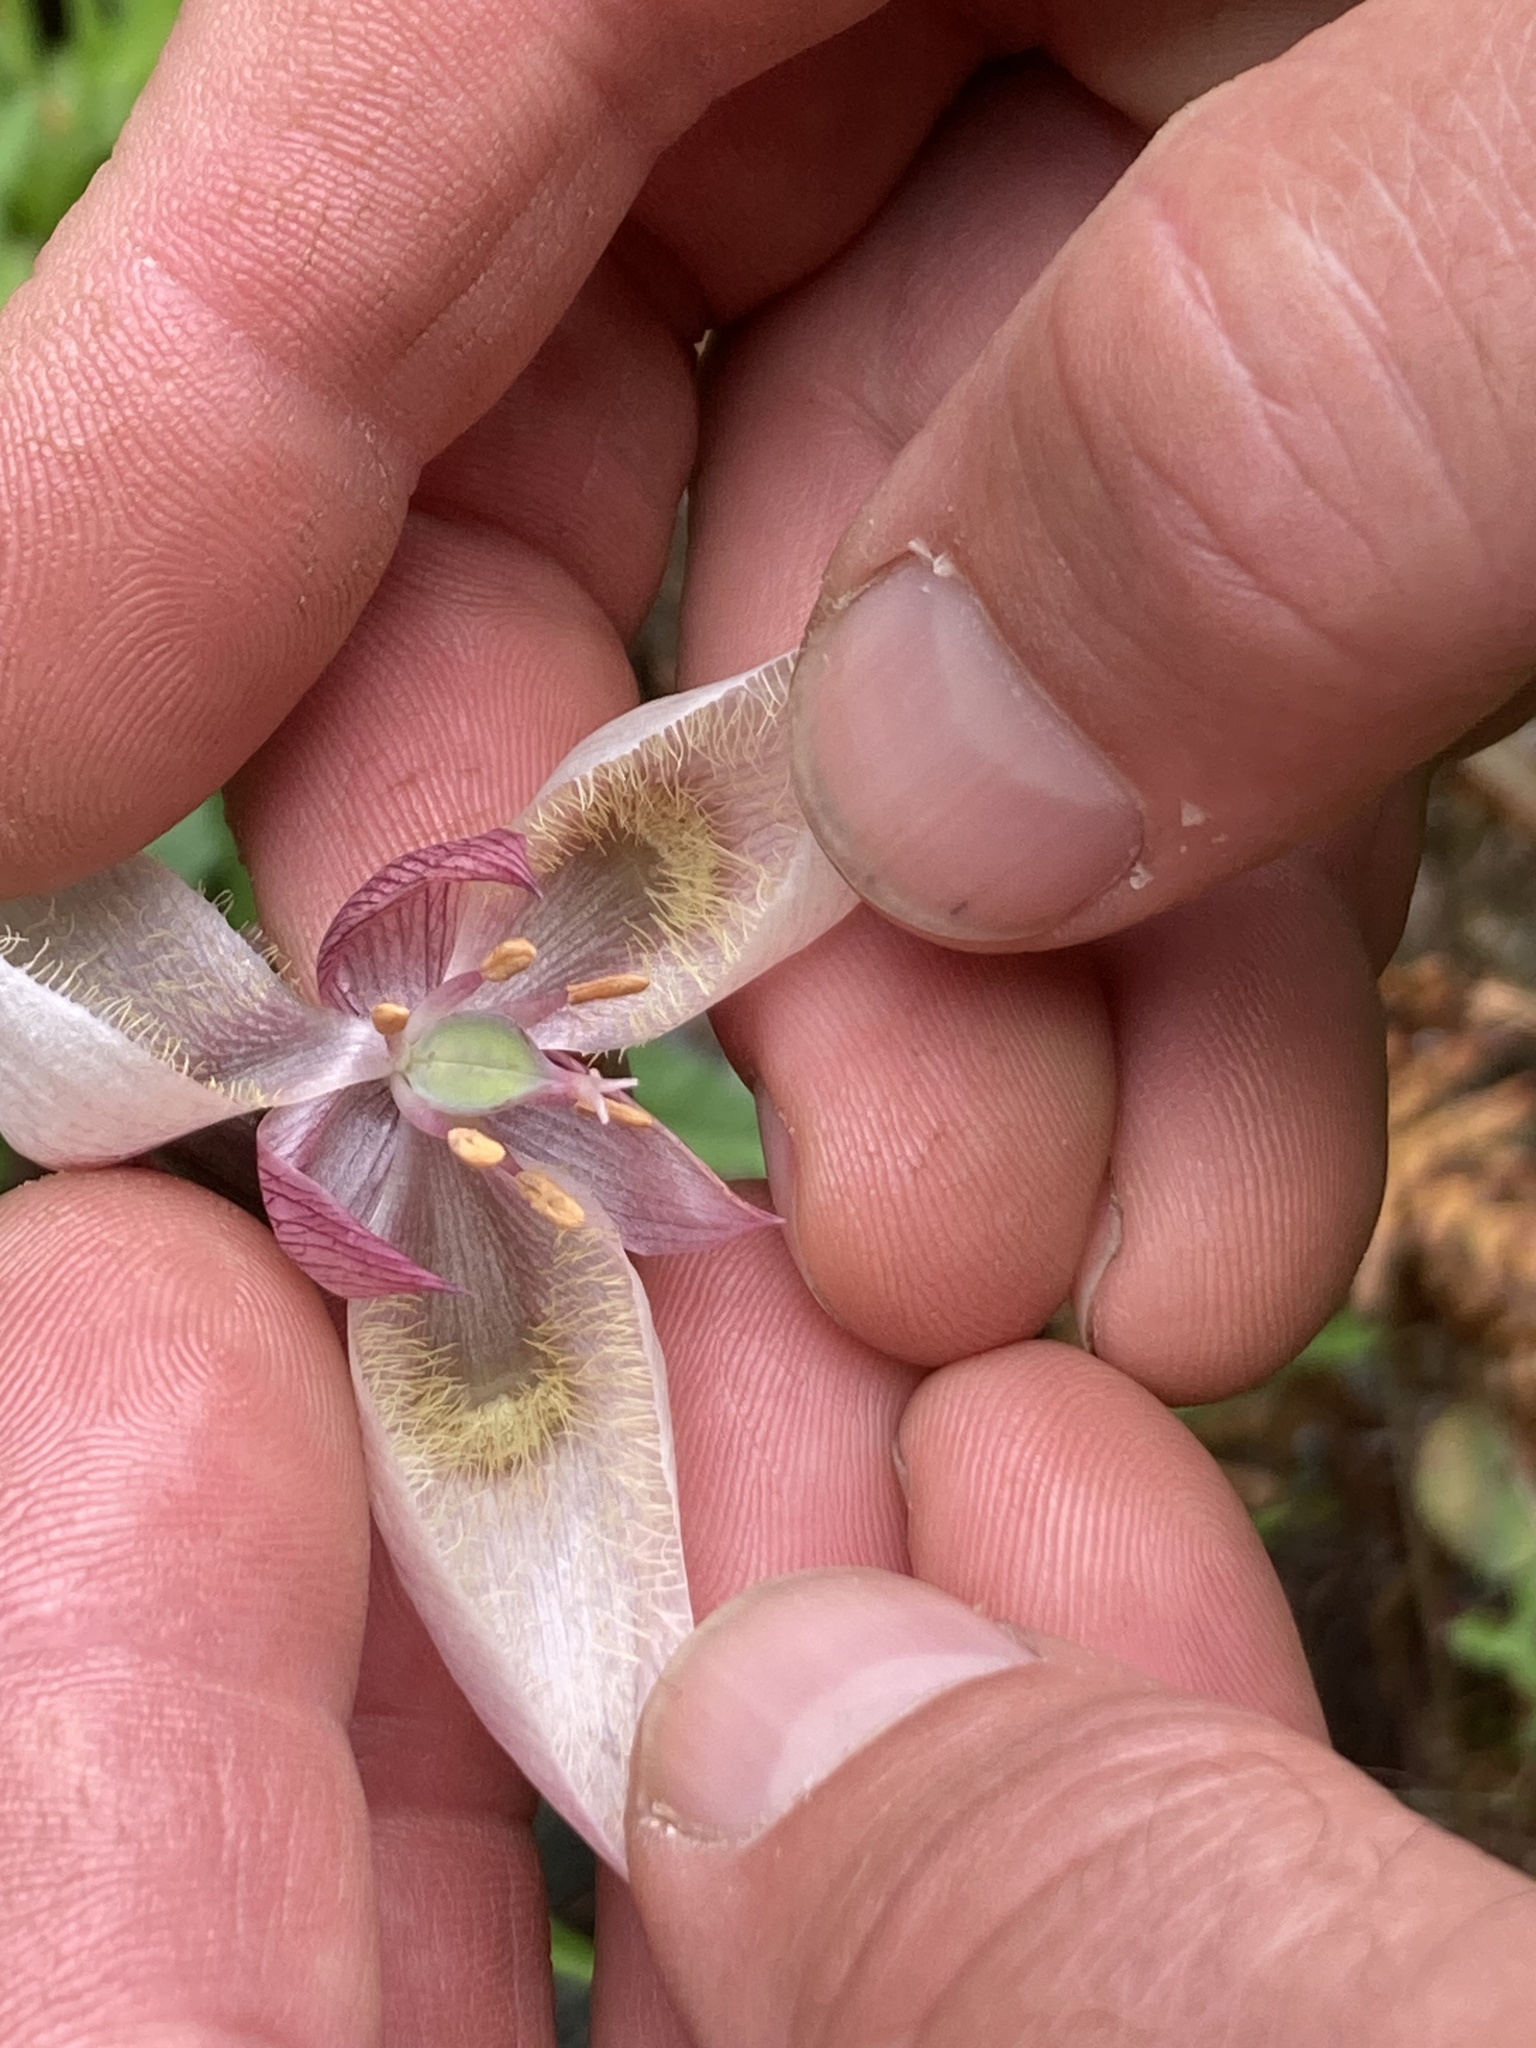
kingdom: Plantae
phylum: Tracheophyta
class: Liliopsida
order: Liliales
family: Liliaceae
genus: Calochortus
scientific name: Calochortus albus
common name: Fairy-lantern
